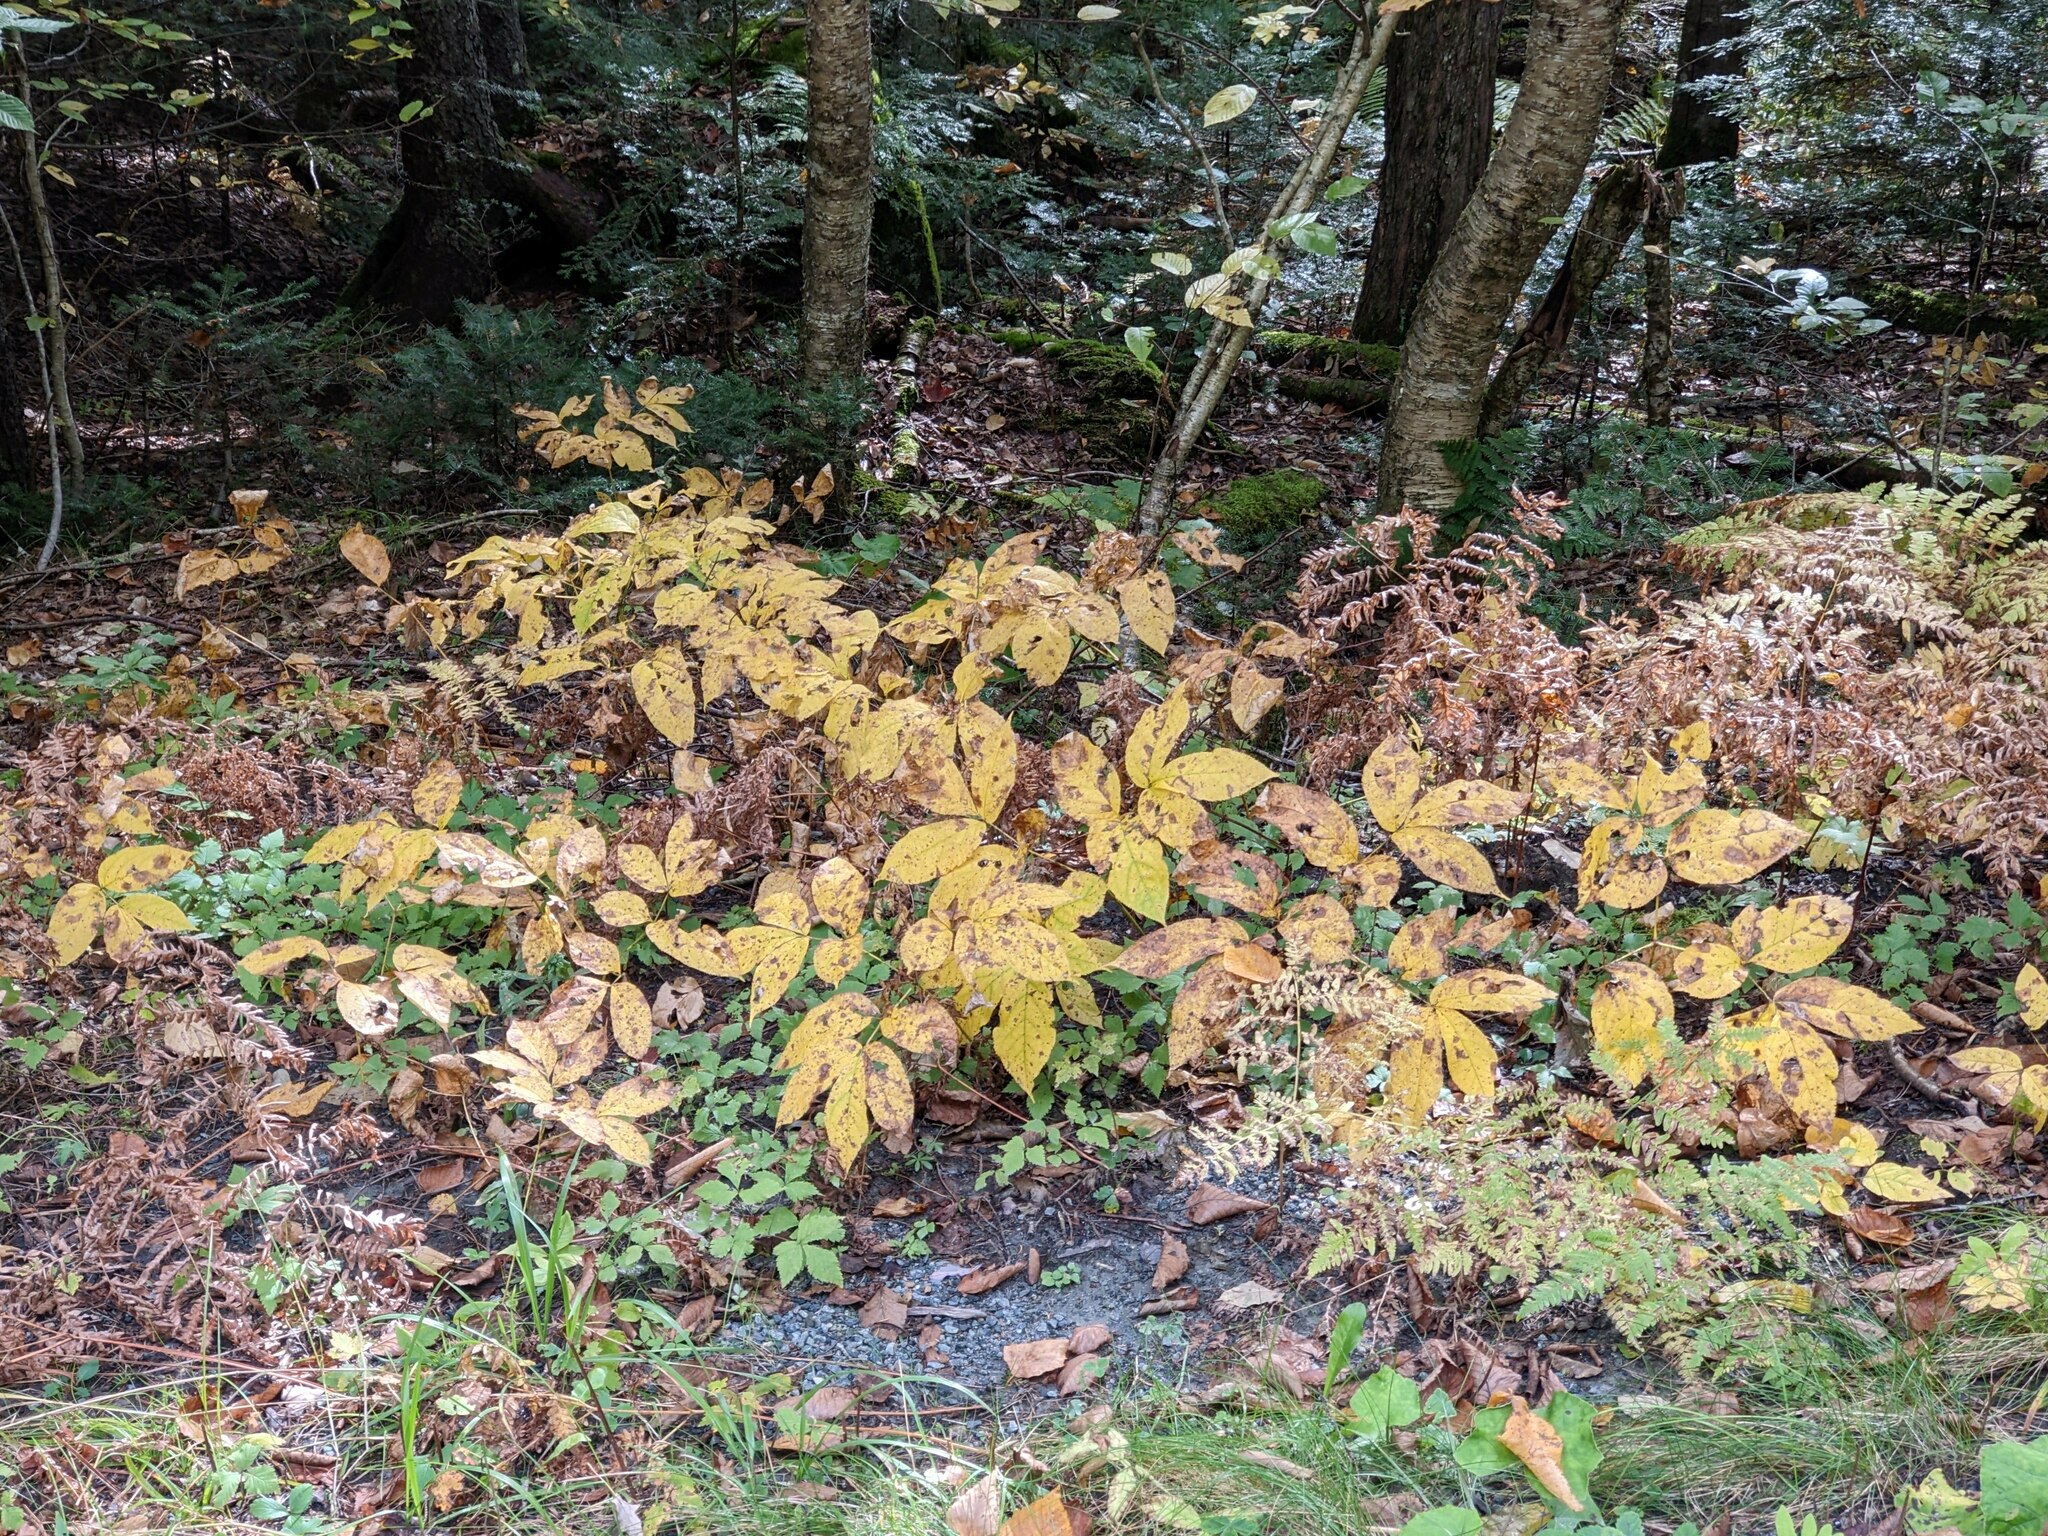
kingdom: Plantae
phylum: Tracheophyta
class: Magnoliopsida
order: Apiales
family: Araliaceae
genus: Aralia
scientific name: Aralia nudicaulis
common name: Wild sarsaparilla
